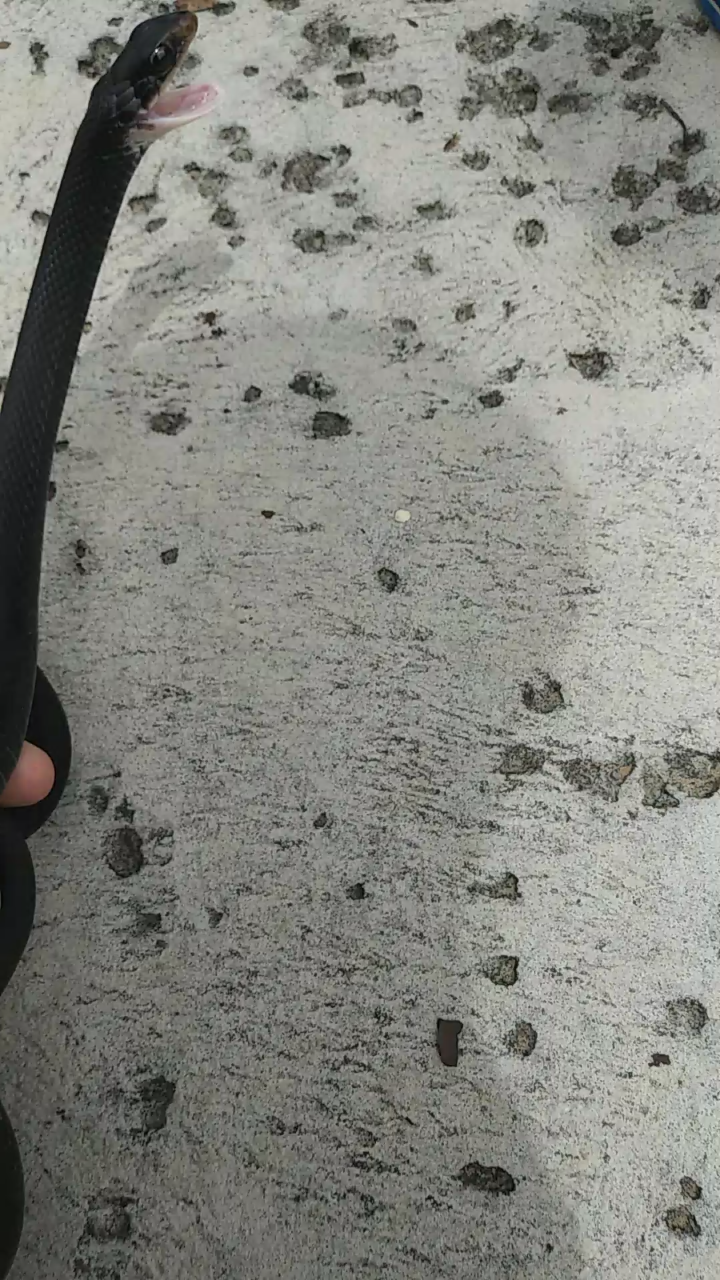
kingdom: Animalia
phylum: Chordata
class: Squamata
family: Colubridae
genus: Coluber
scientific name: Coluber constrictor
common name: Eastern racer
